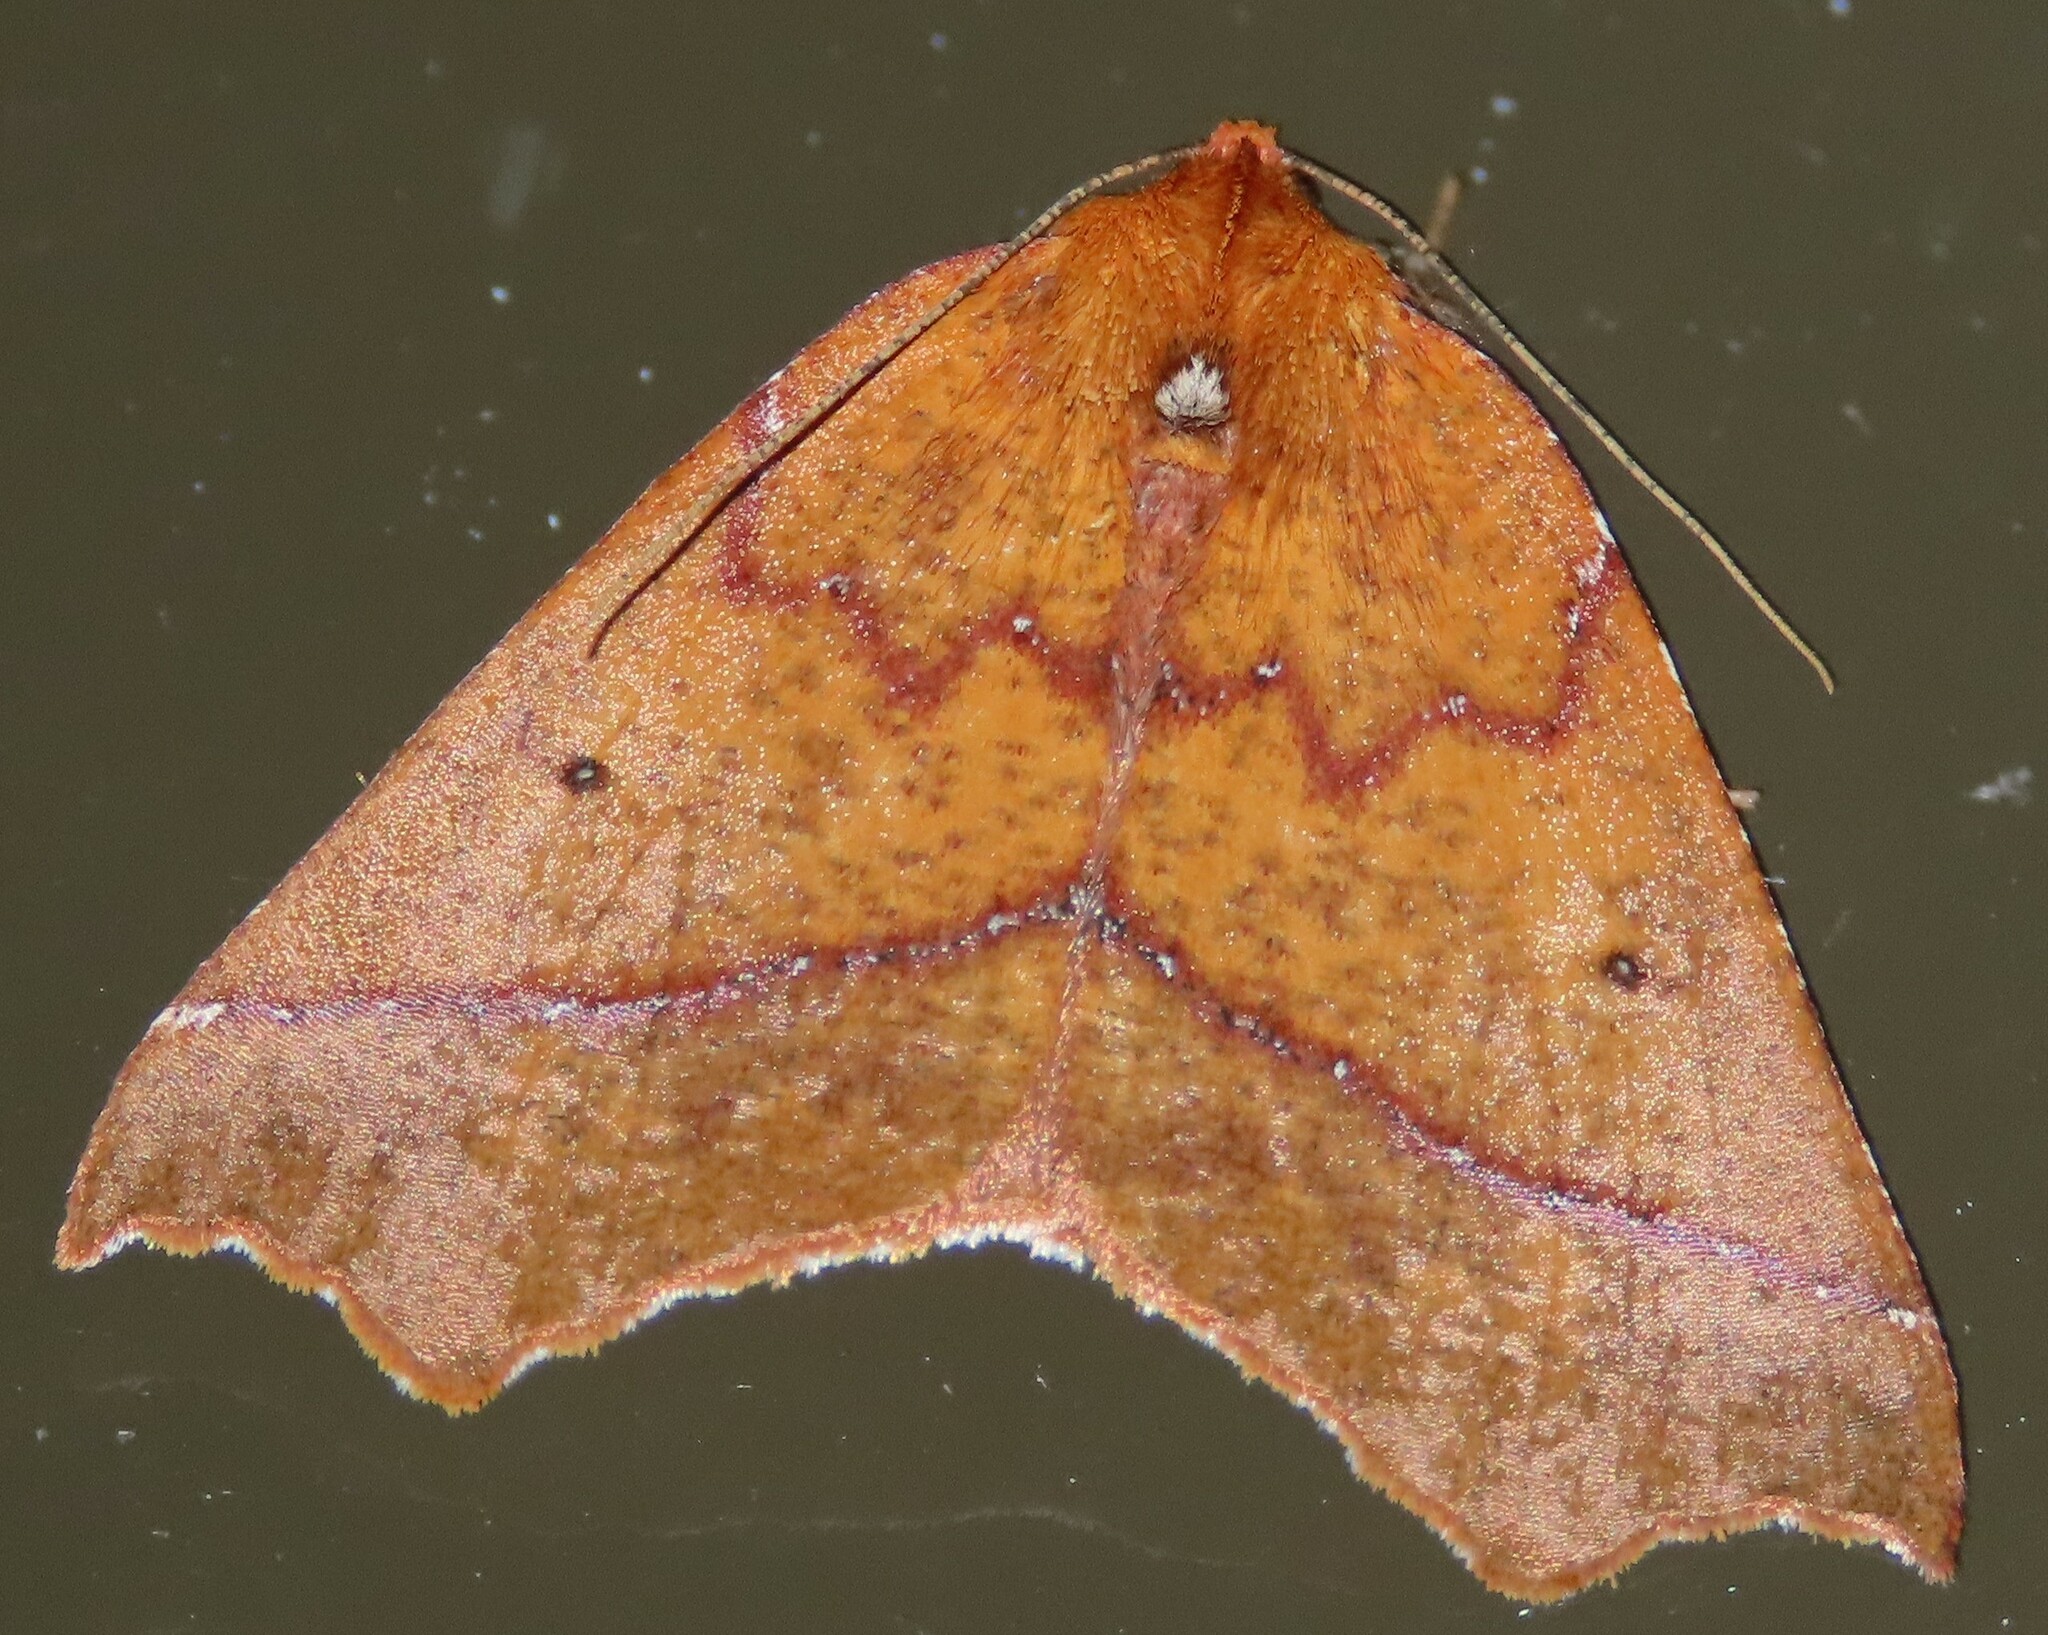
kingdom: Animalia
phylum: Arthropoda
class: Insecta
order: Lepidoptera
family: Geometridae
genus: Ischalis
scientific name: Ischalis nelsonaria
